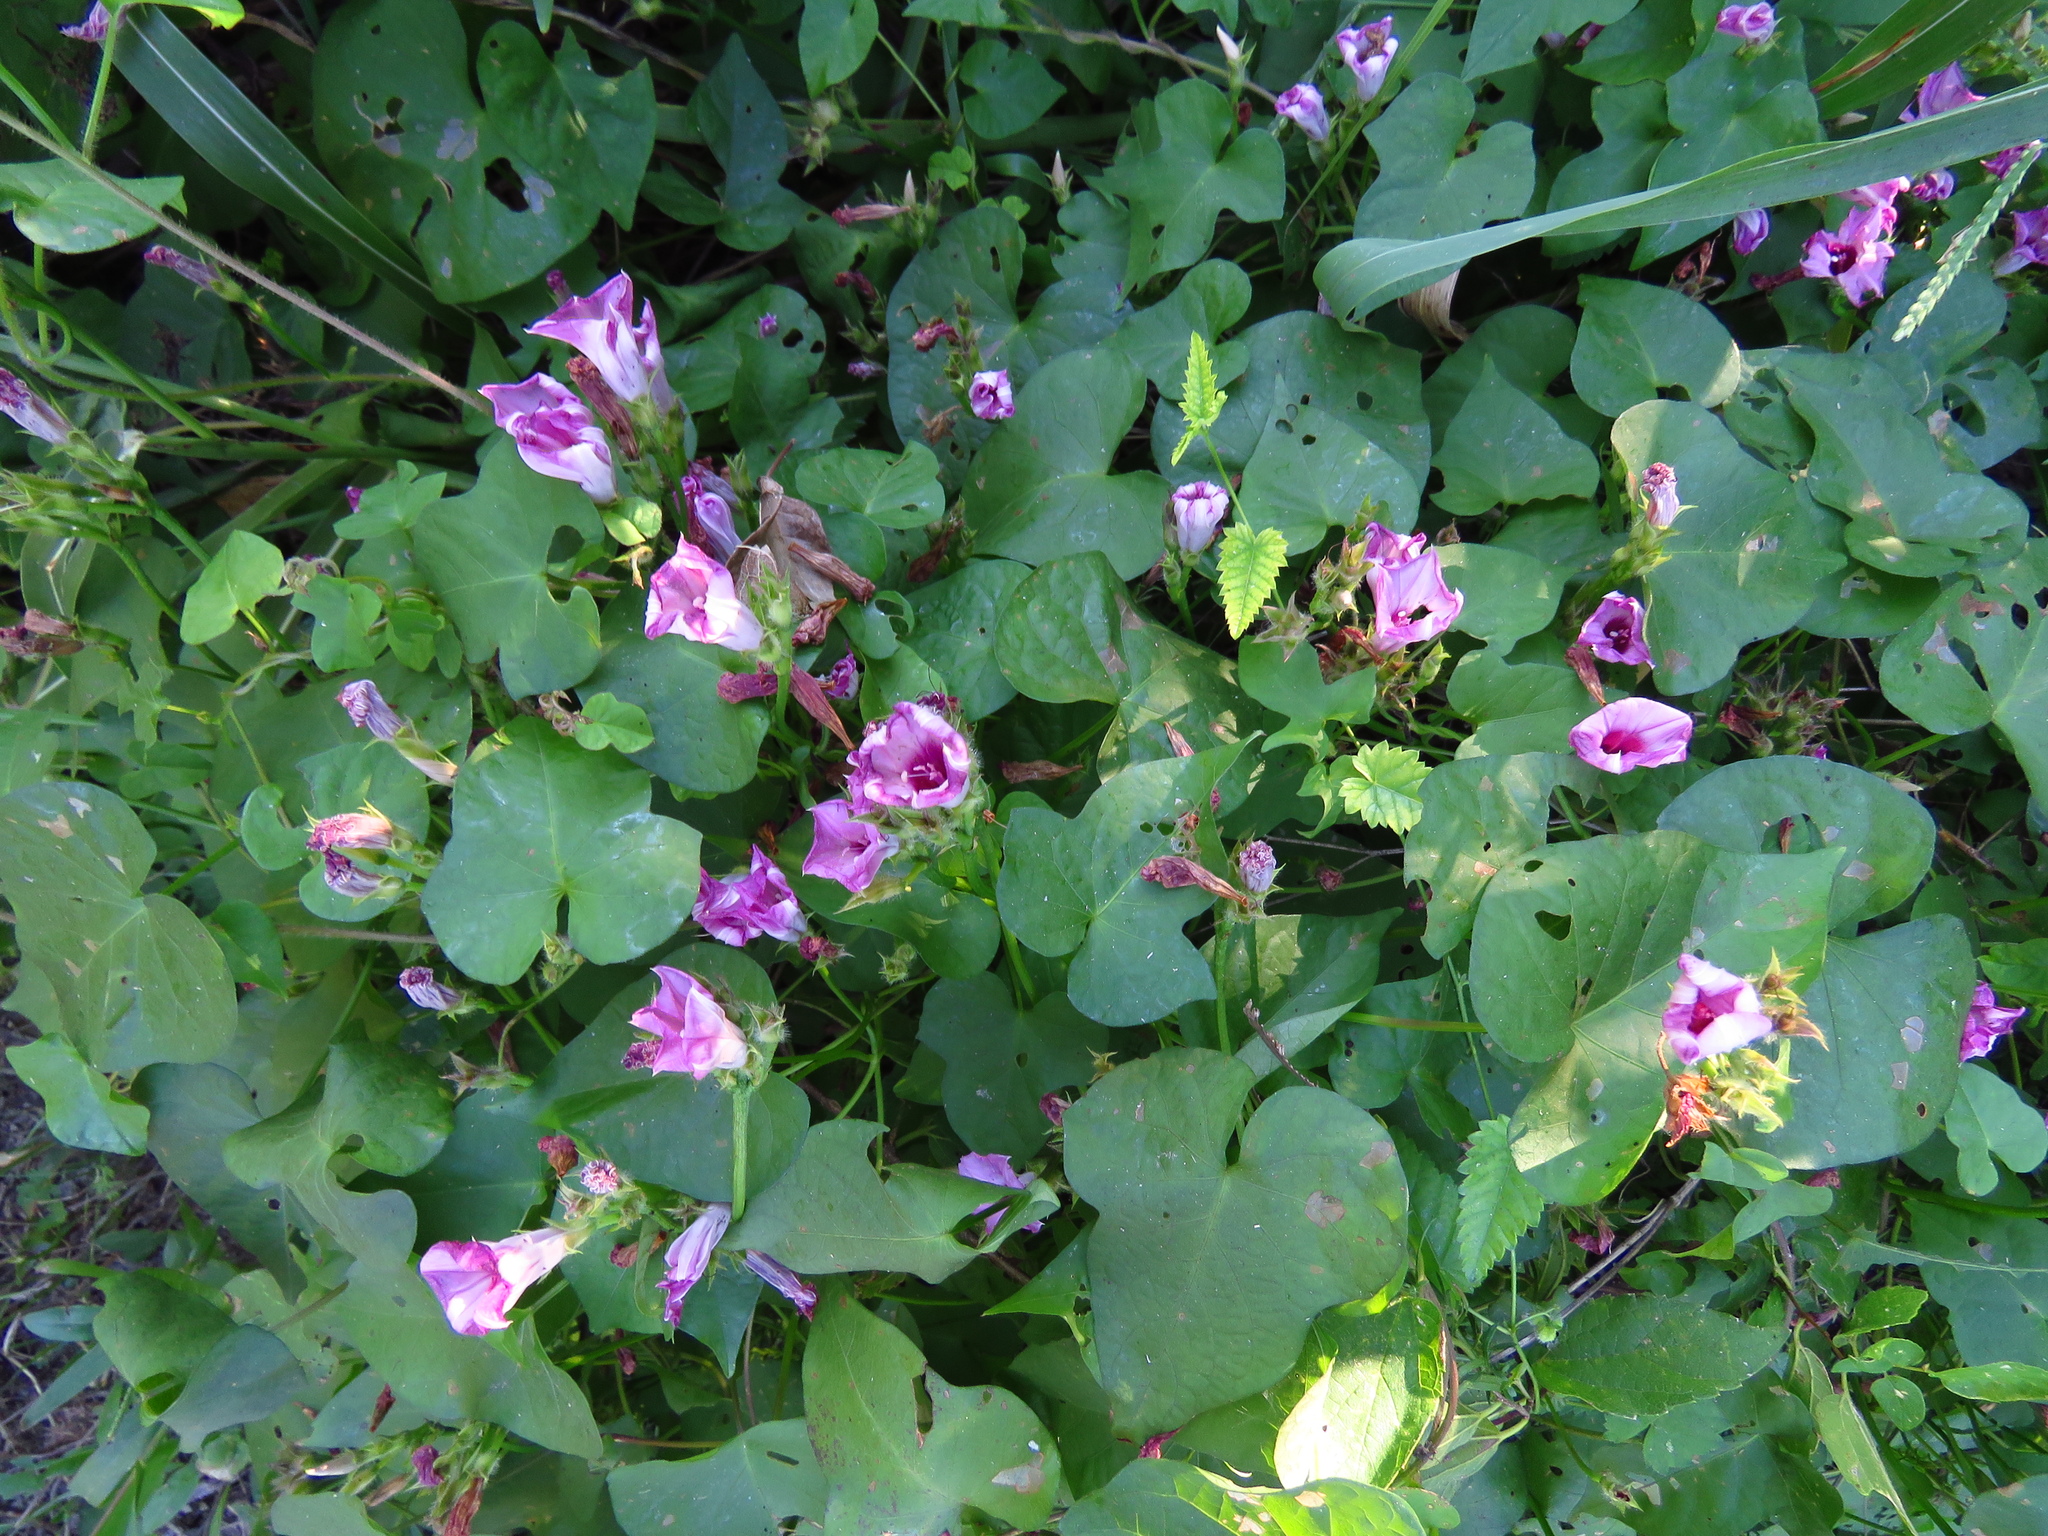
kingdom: Plantae
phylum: Tracheophyta
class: Magnoliopsida
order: Solanales
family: Convolvulaceae
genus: Ipomoea
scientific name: Ipomoea cordatotriloba
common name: Cotton morning glory
